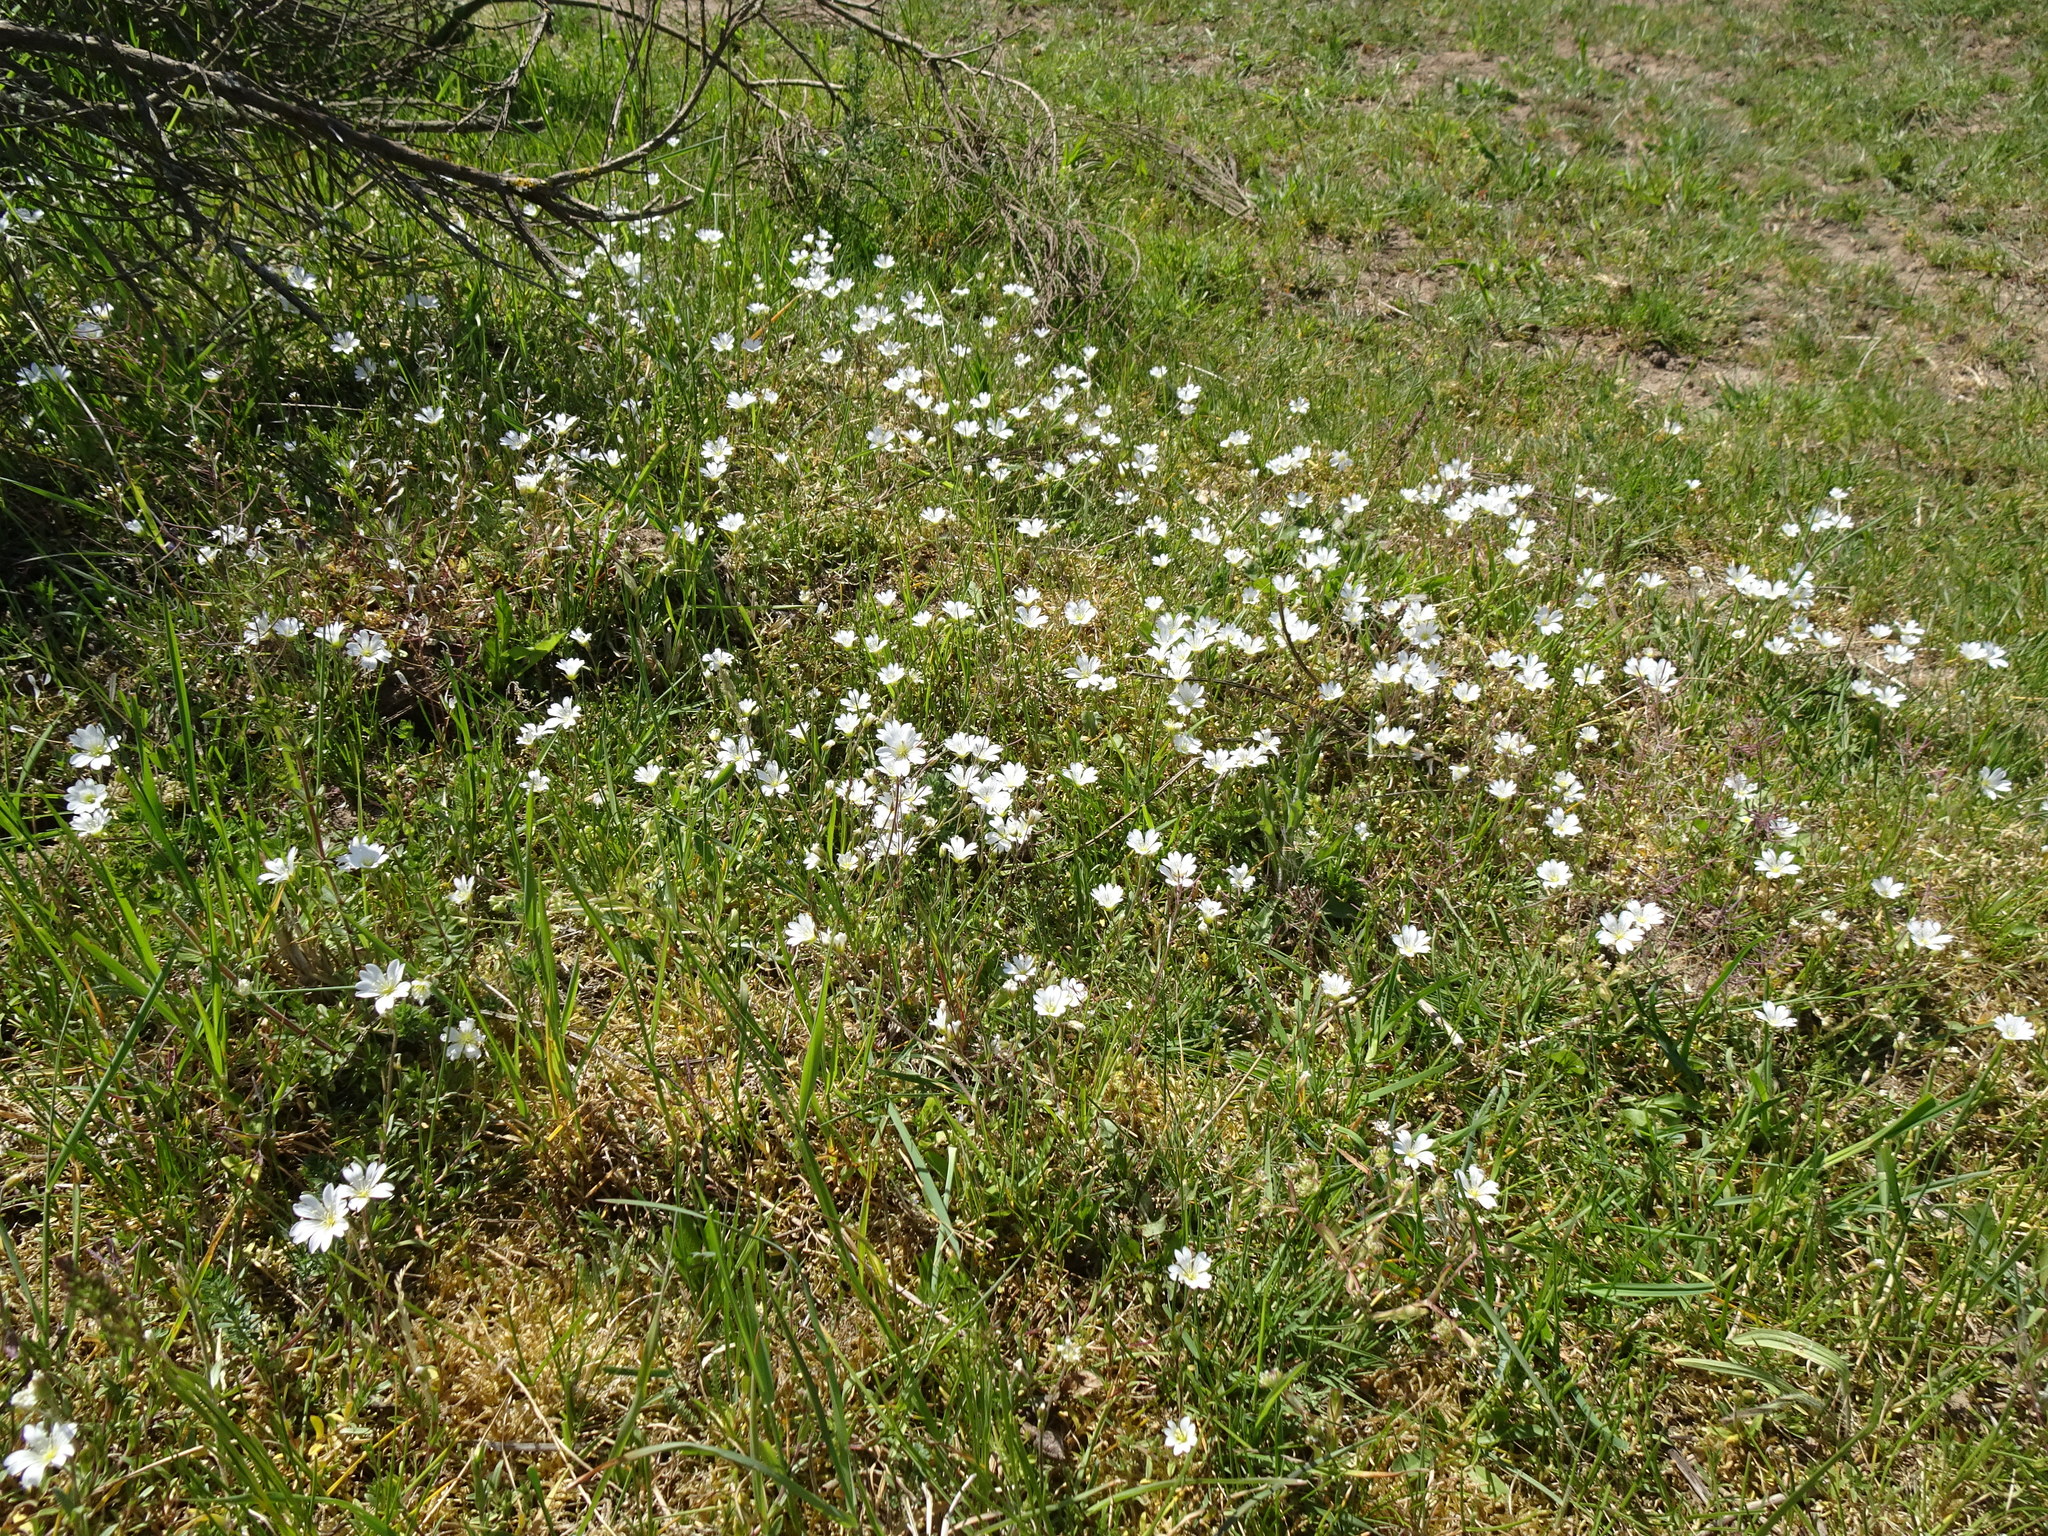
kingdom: Plantae
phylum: Tracheophyta
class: Magnoliopsida
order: Caryophyllales
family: Caryophyllaceae
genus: Cerastium
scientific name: Cerastium arvense
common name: Field mouse-ear
